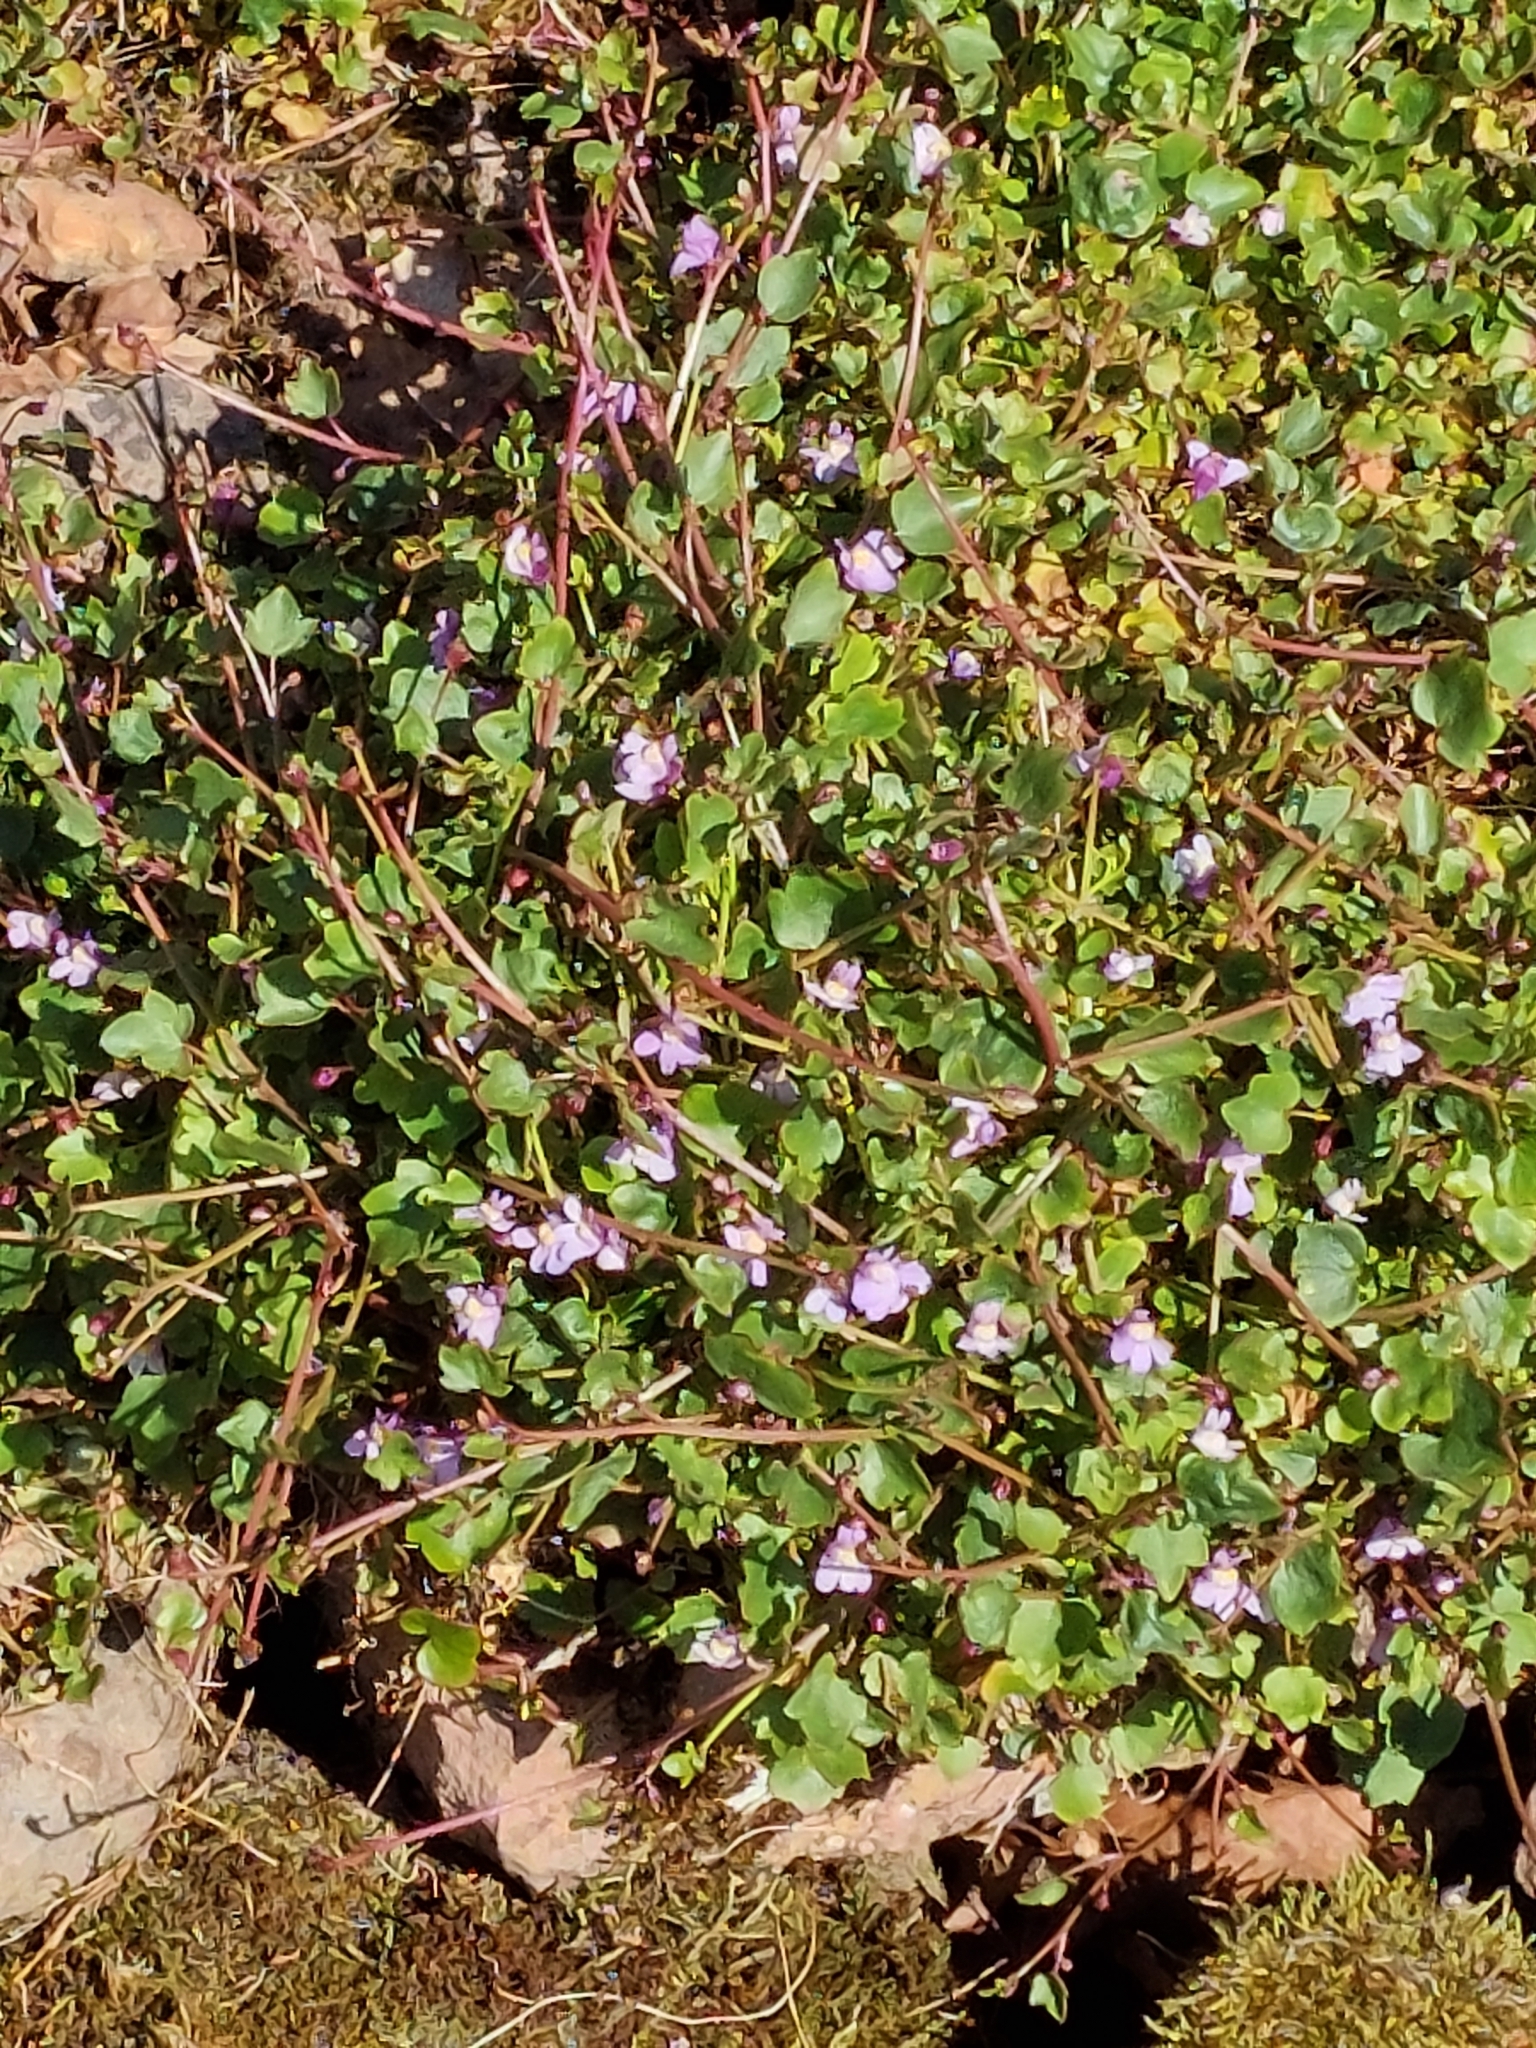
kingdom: Plantae
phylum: Tracheophyta
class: Magnoliopsida
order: Lamiales
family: Plantaginaceae
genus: Cymbalaria
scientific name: Cymbalaria muralis
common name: Ivy-leaved toadflax
